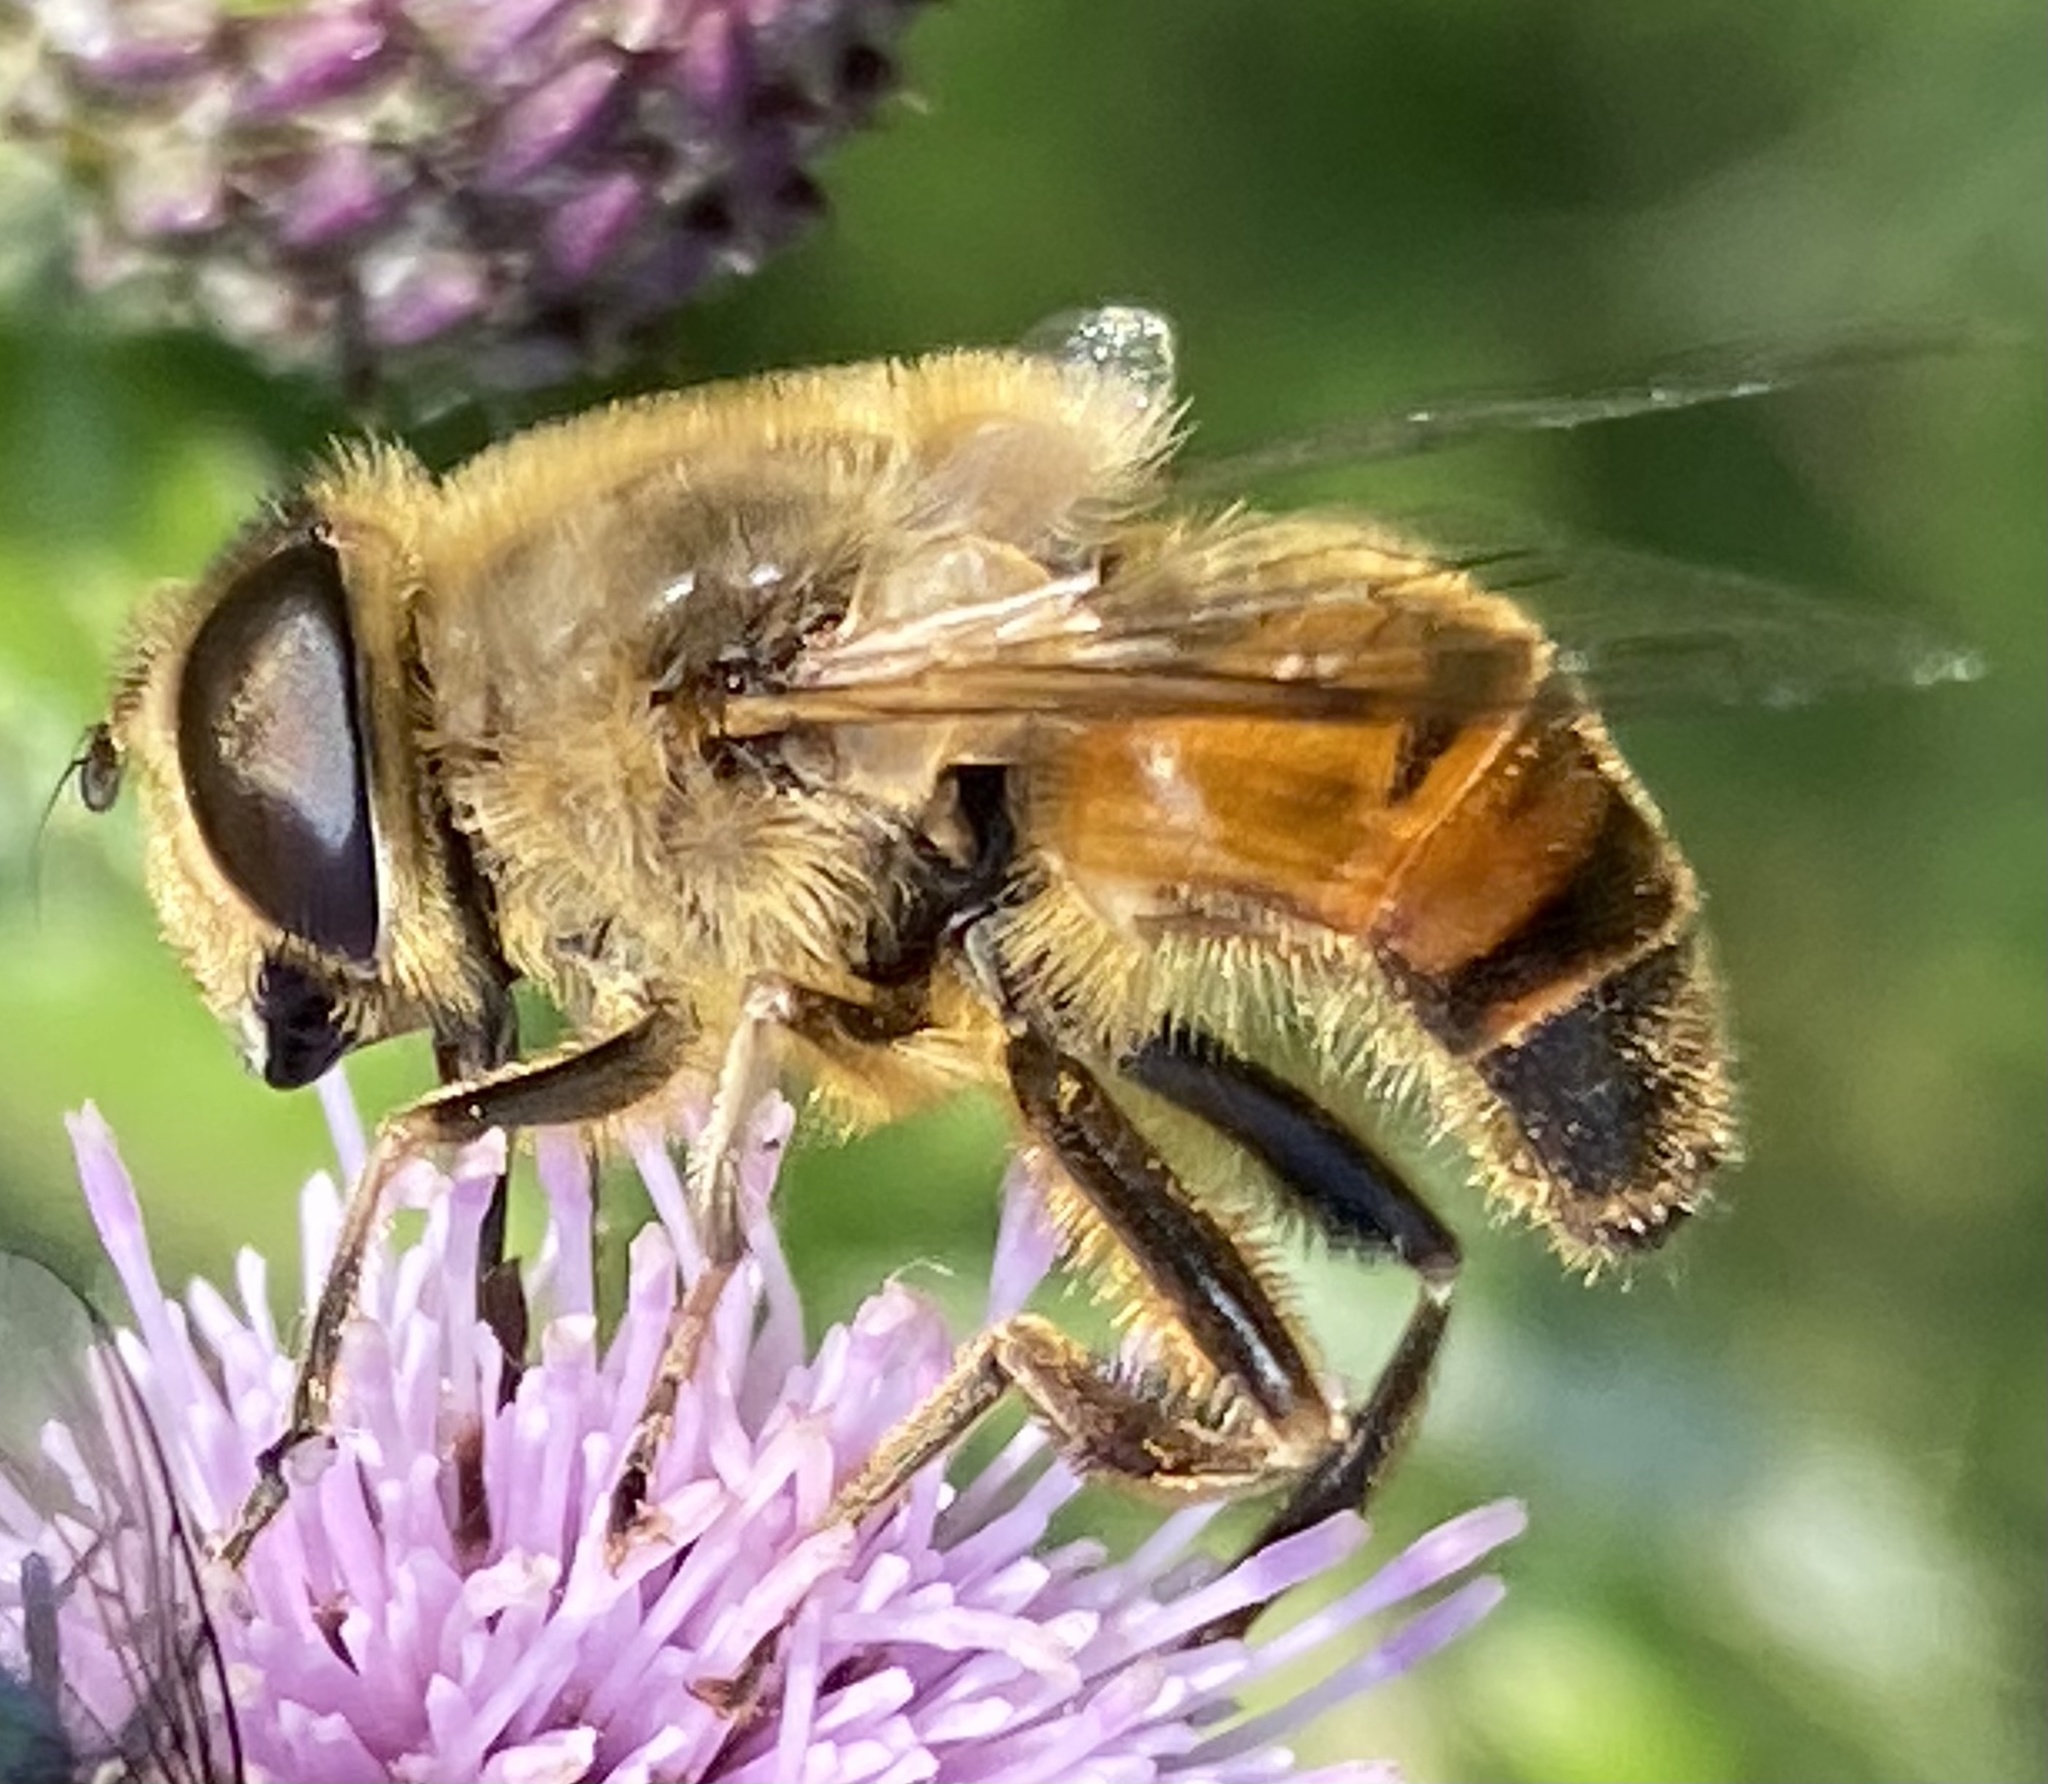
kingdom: Animalia
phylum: Arthropoda
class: Insecta
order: Diptera
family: Syrphidae
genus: Eristalis
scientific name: Eristalis tenax
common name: Drone fly
